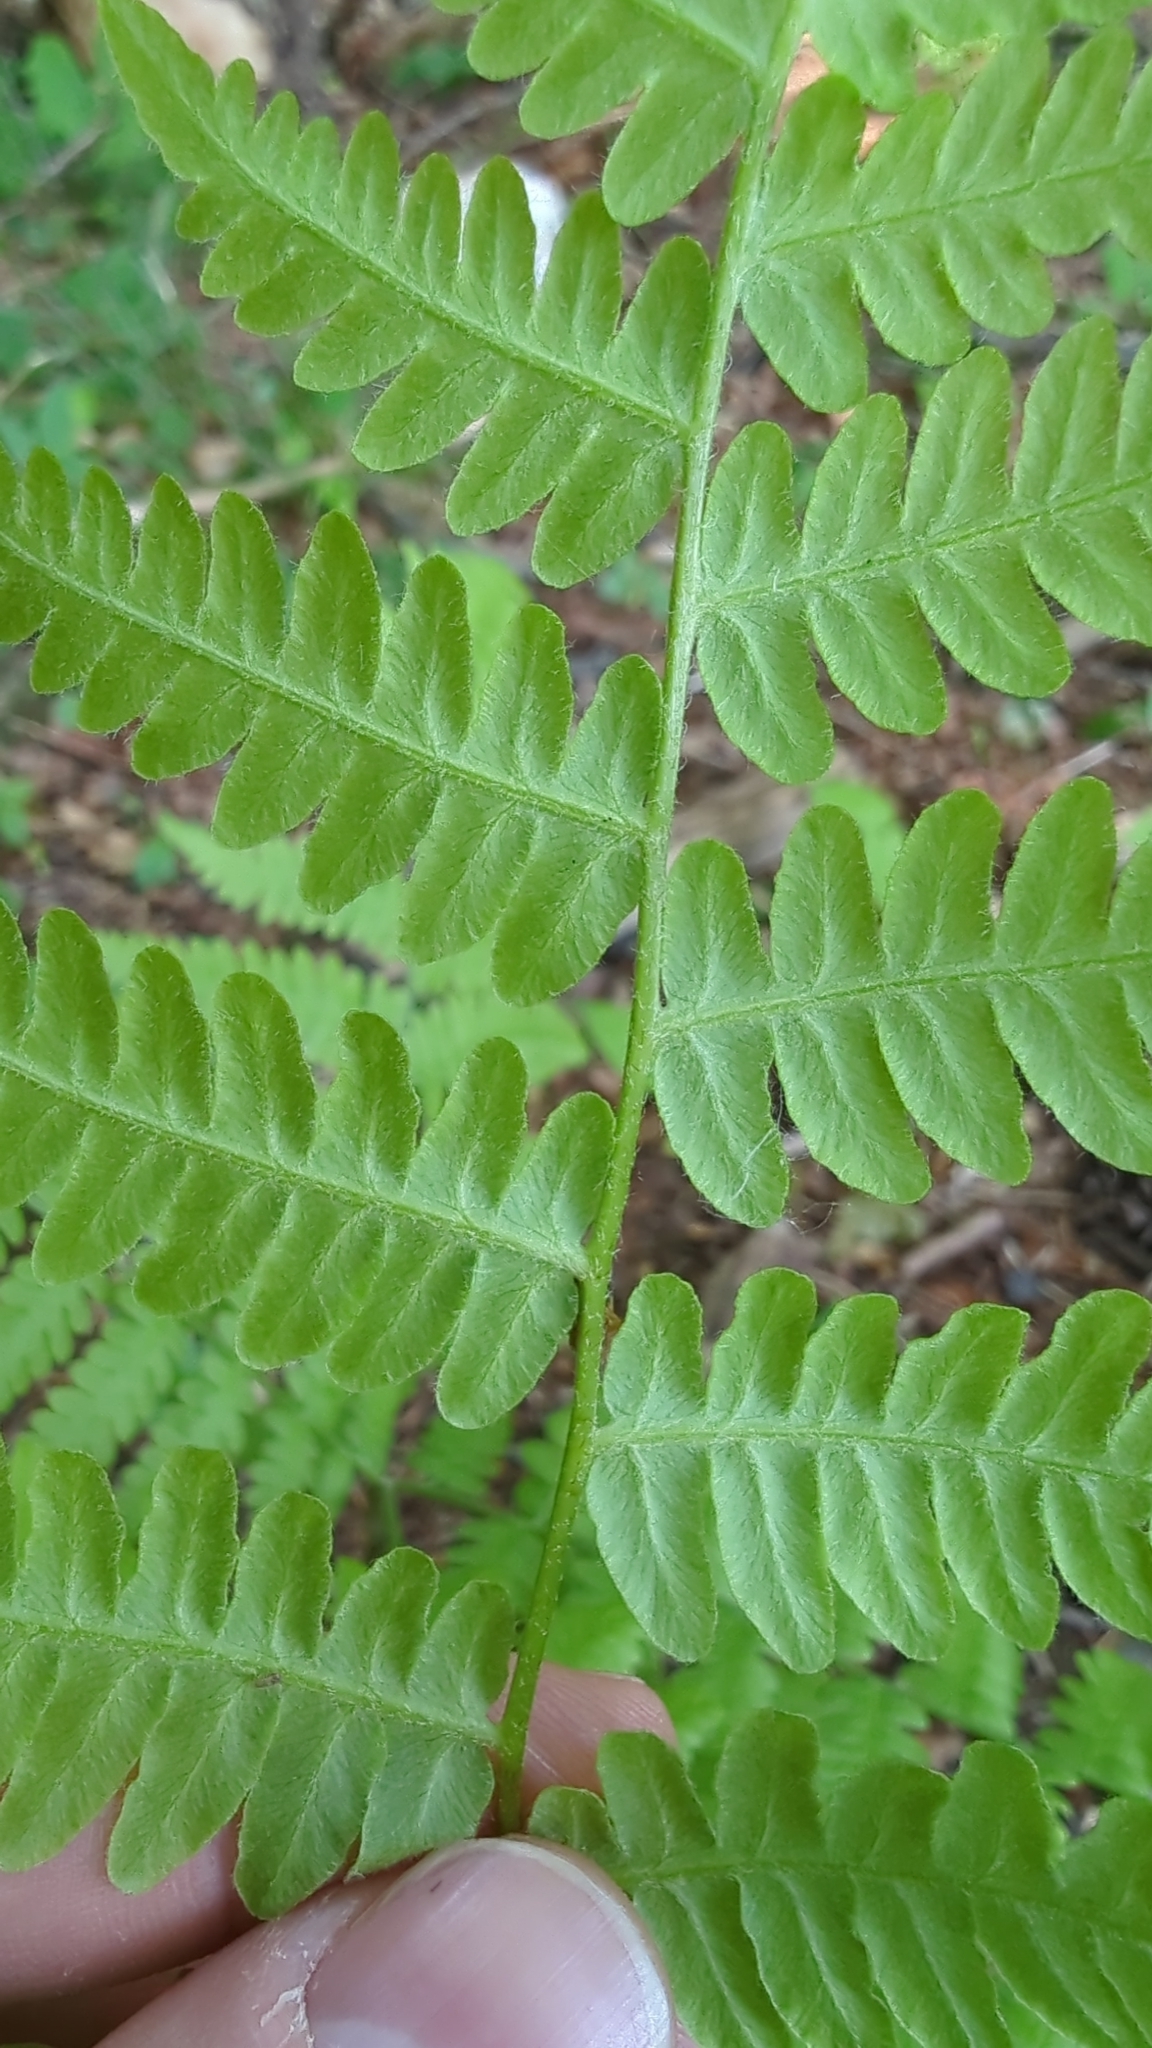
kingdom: Plantae
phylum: Tracheophyta
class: Polypodiopsida
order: Polypodiales
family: Dennstaedtiaceae
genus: Pteridium
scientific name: Pteridium aquilinum
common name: Bracken
